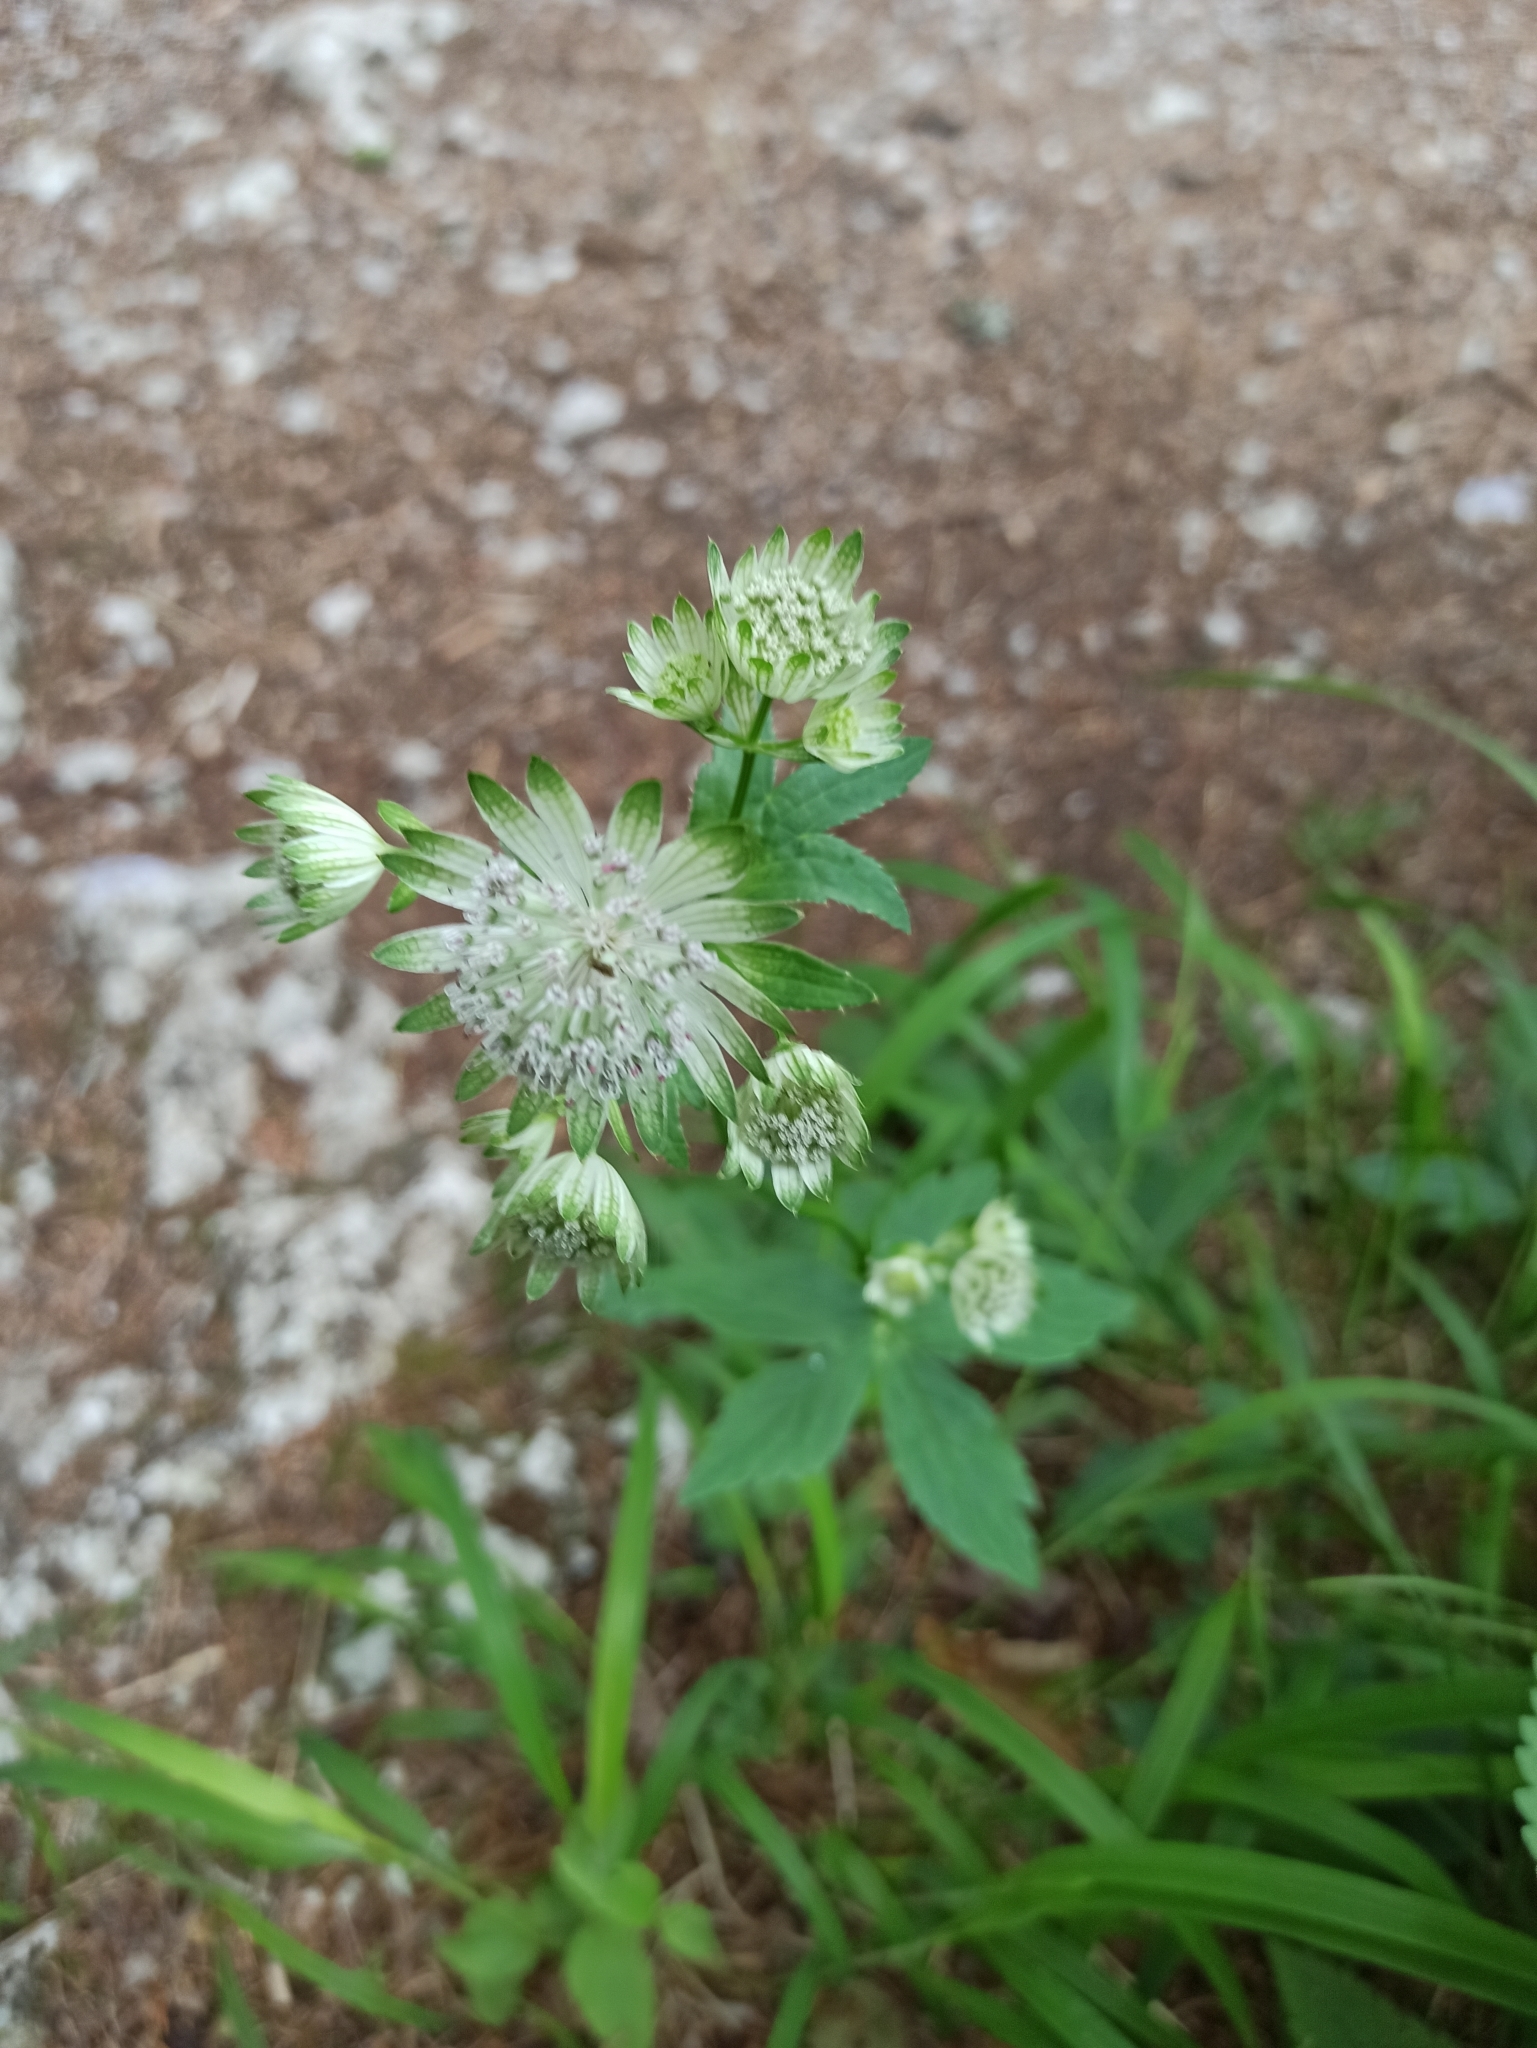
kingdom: Plantae
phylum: Tracheophyta
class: Magnoliopsida
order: Apiales
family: Apiaceae
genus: Astrantia
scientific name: Astrantia major
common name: Greater masterwort
